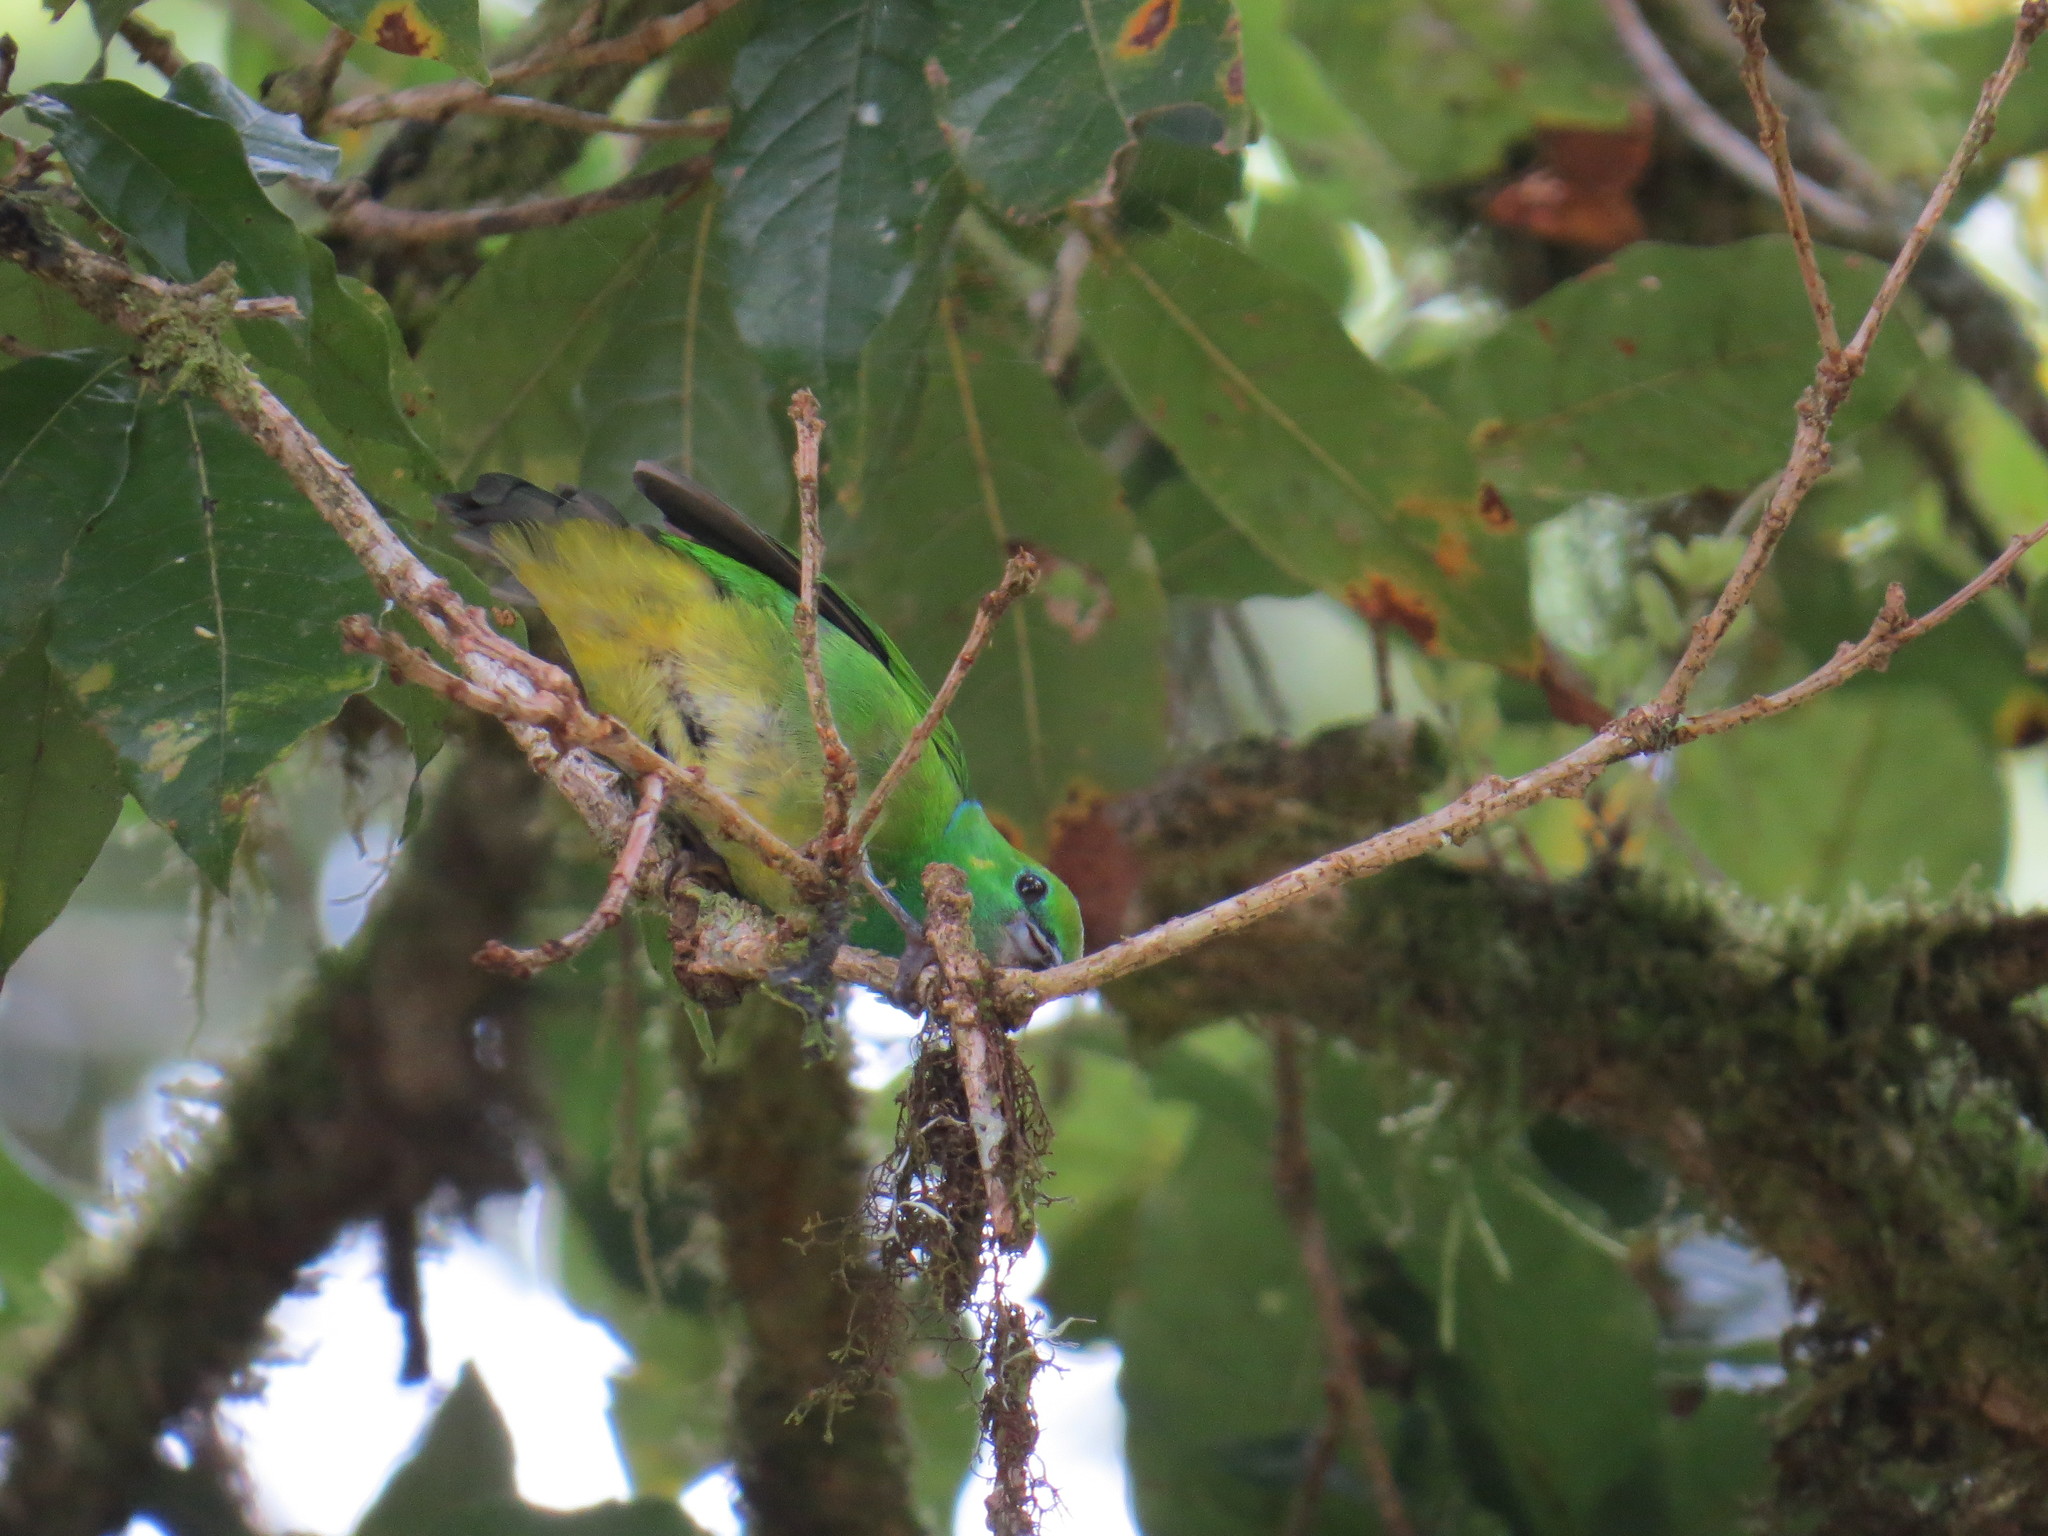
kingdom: Animalia
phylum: Chordata
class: Aves
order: Passeriformes
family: Fringillidae
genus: Chlorophonia
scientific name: Chlorophonia callophrys
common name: Golden-browed chlorophonia
